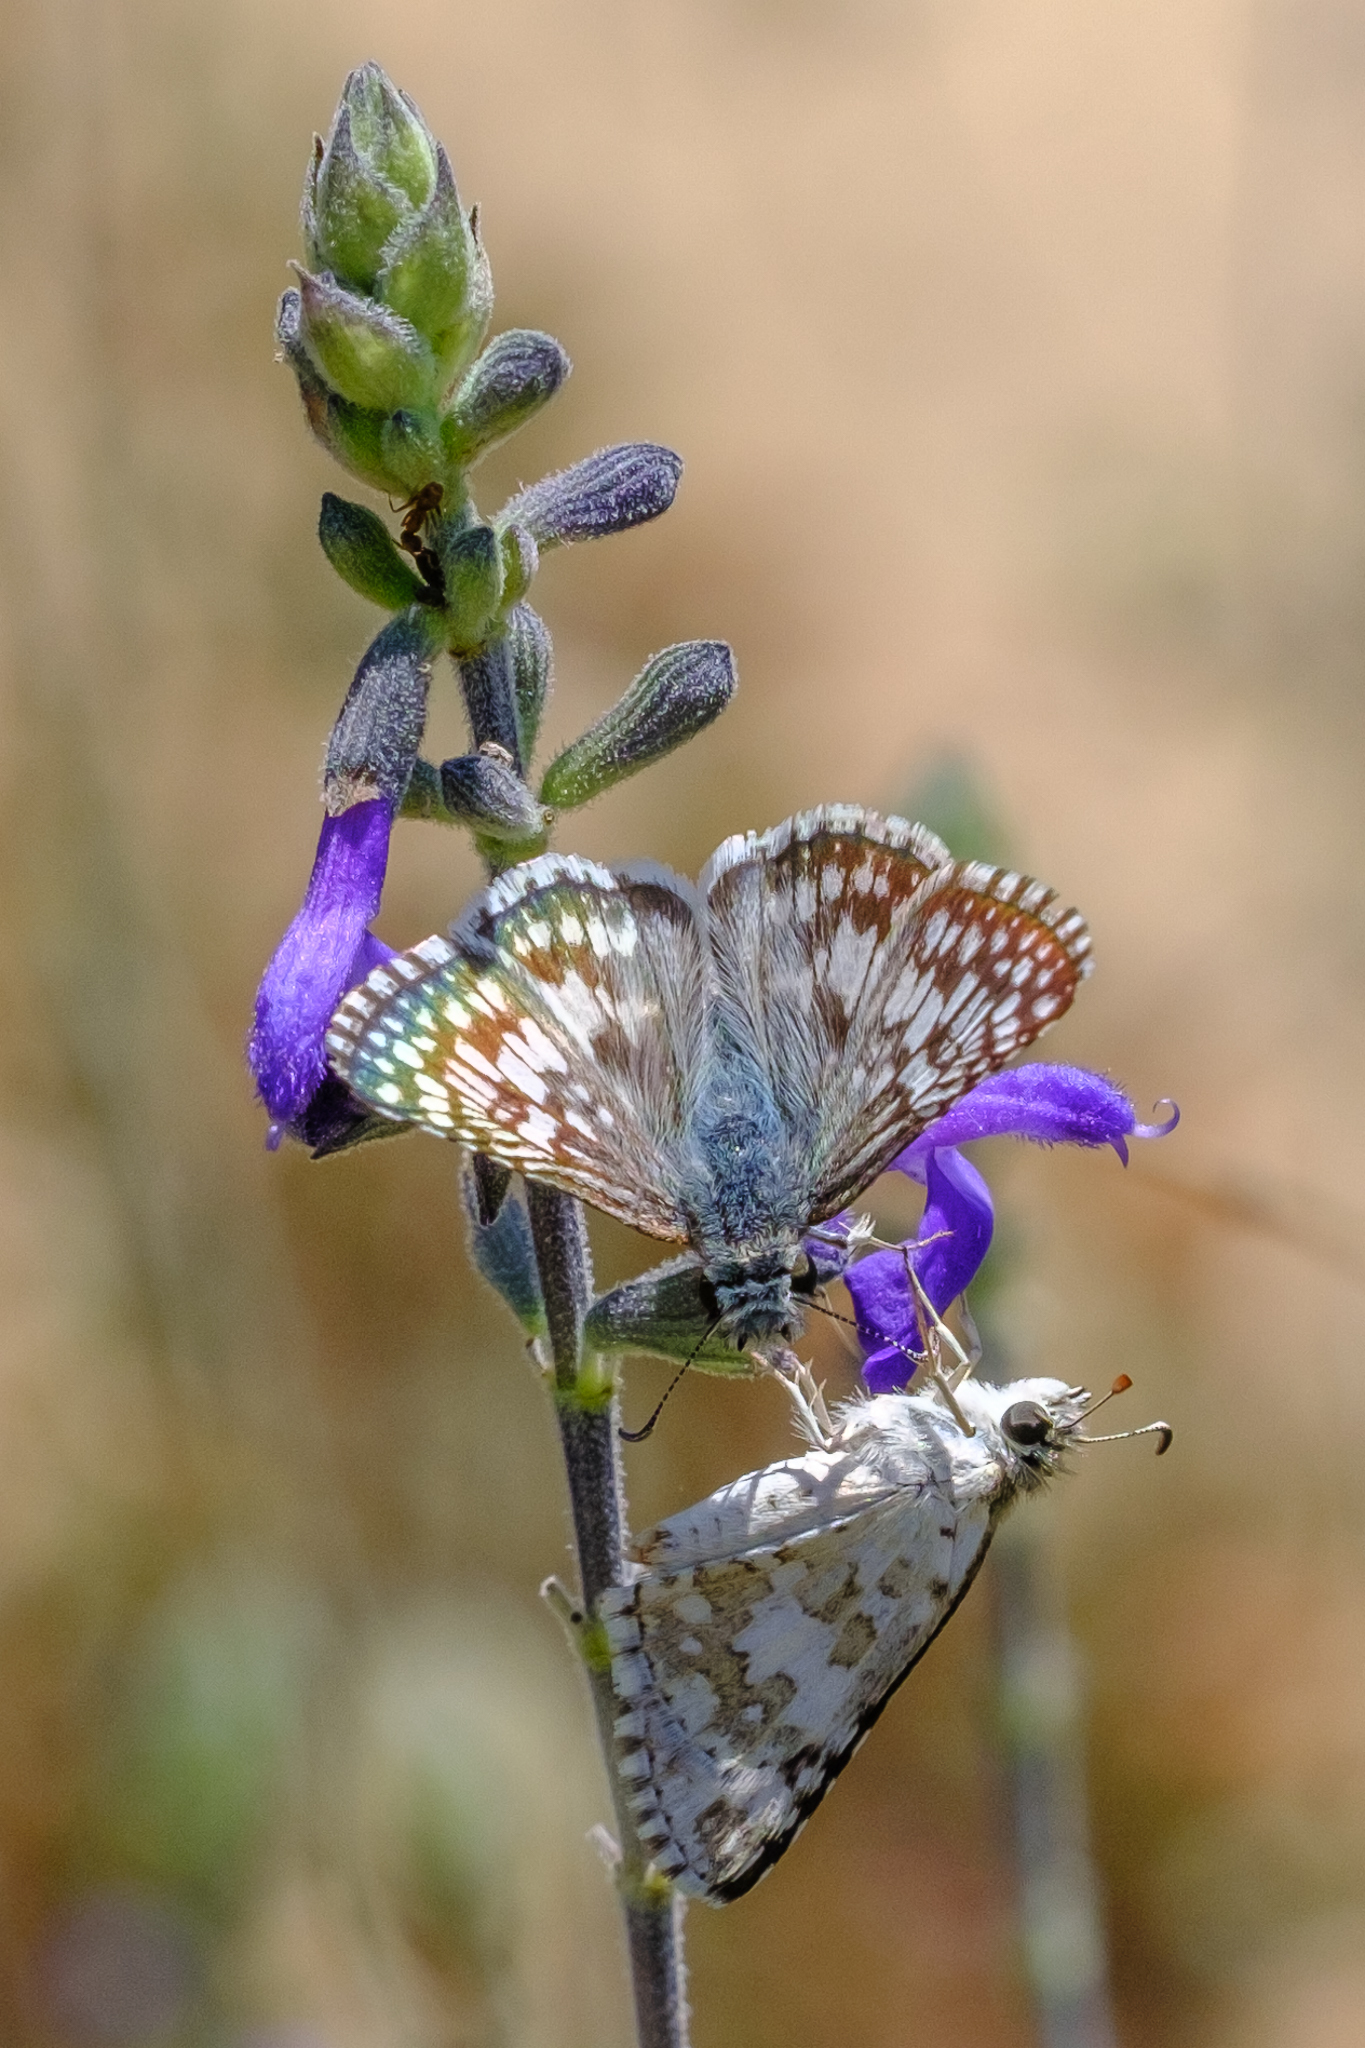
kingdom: Animalia
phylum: Arthropoda
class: Insecta
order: Lepidoptera
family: Hesperiidae
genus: Burnsius
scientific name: Burnsius albezens
